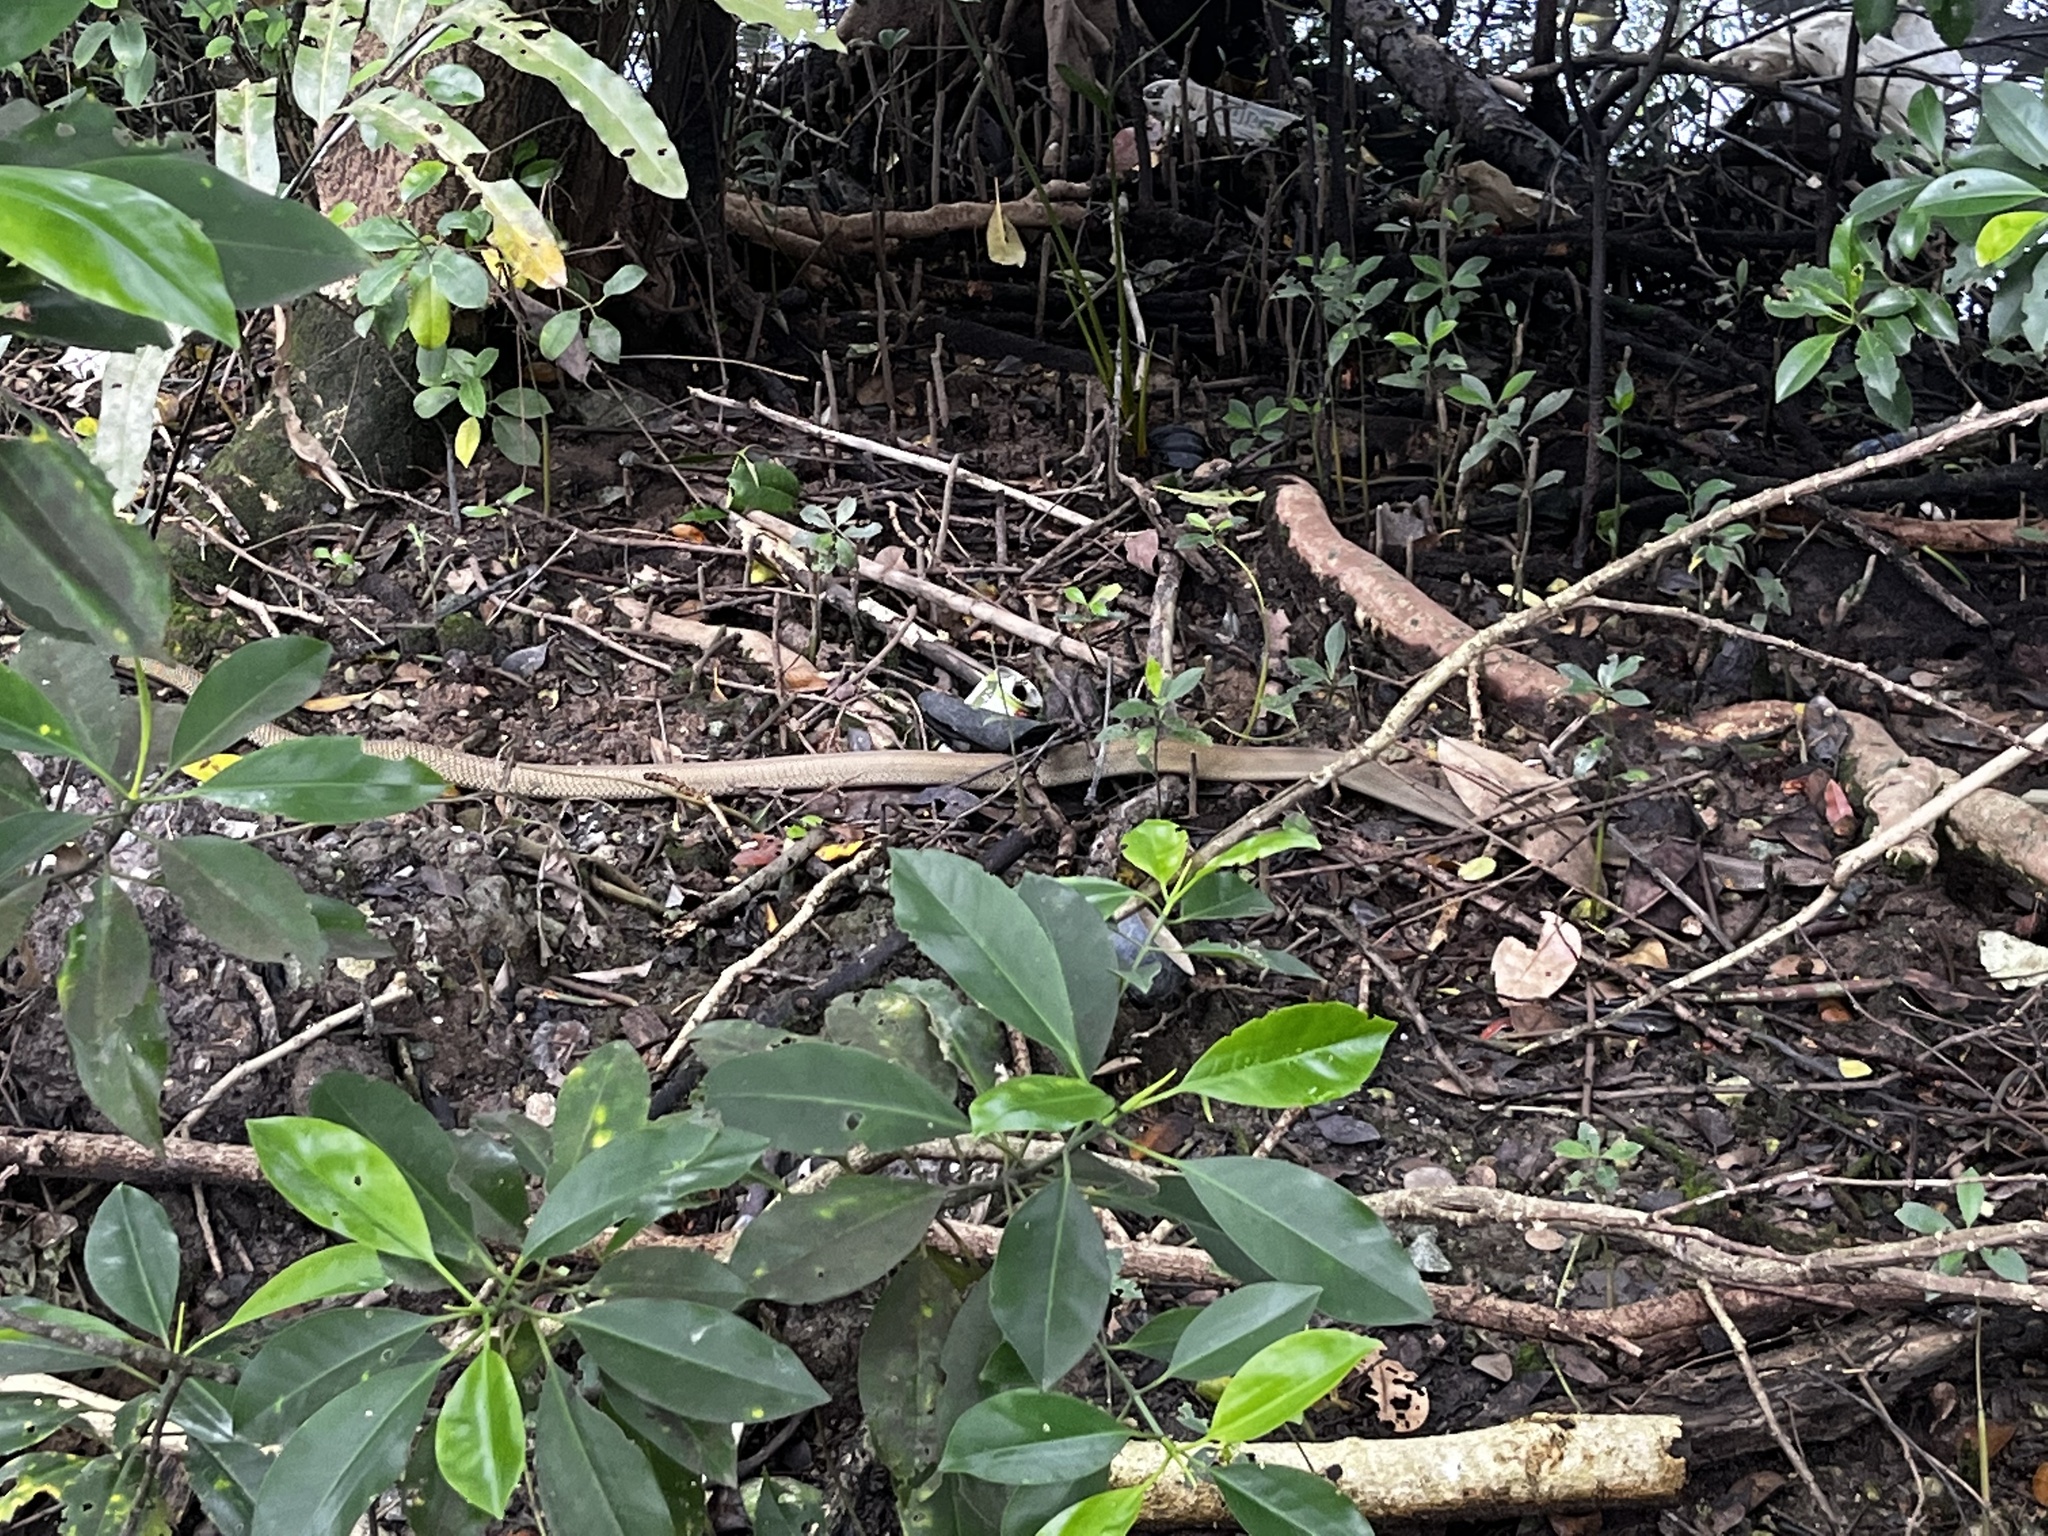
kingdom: Animalia
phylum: Chordata
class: Squamata
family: Elapidae
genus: Ophiophagus
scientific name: Ophiophagus hannah
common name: Hamadryad
